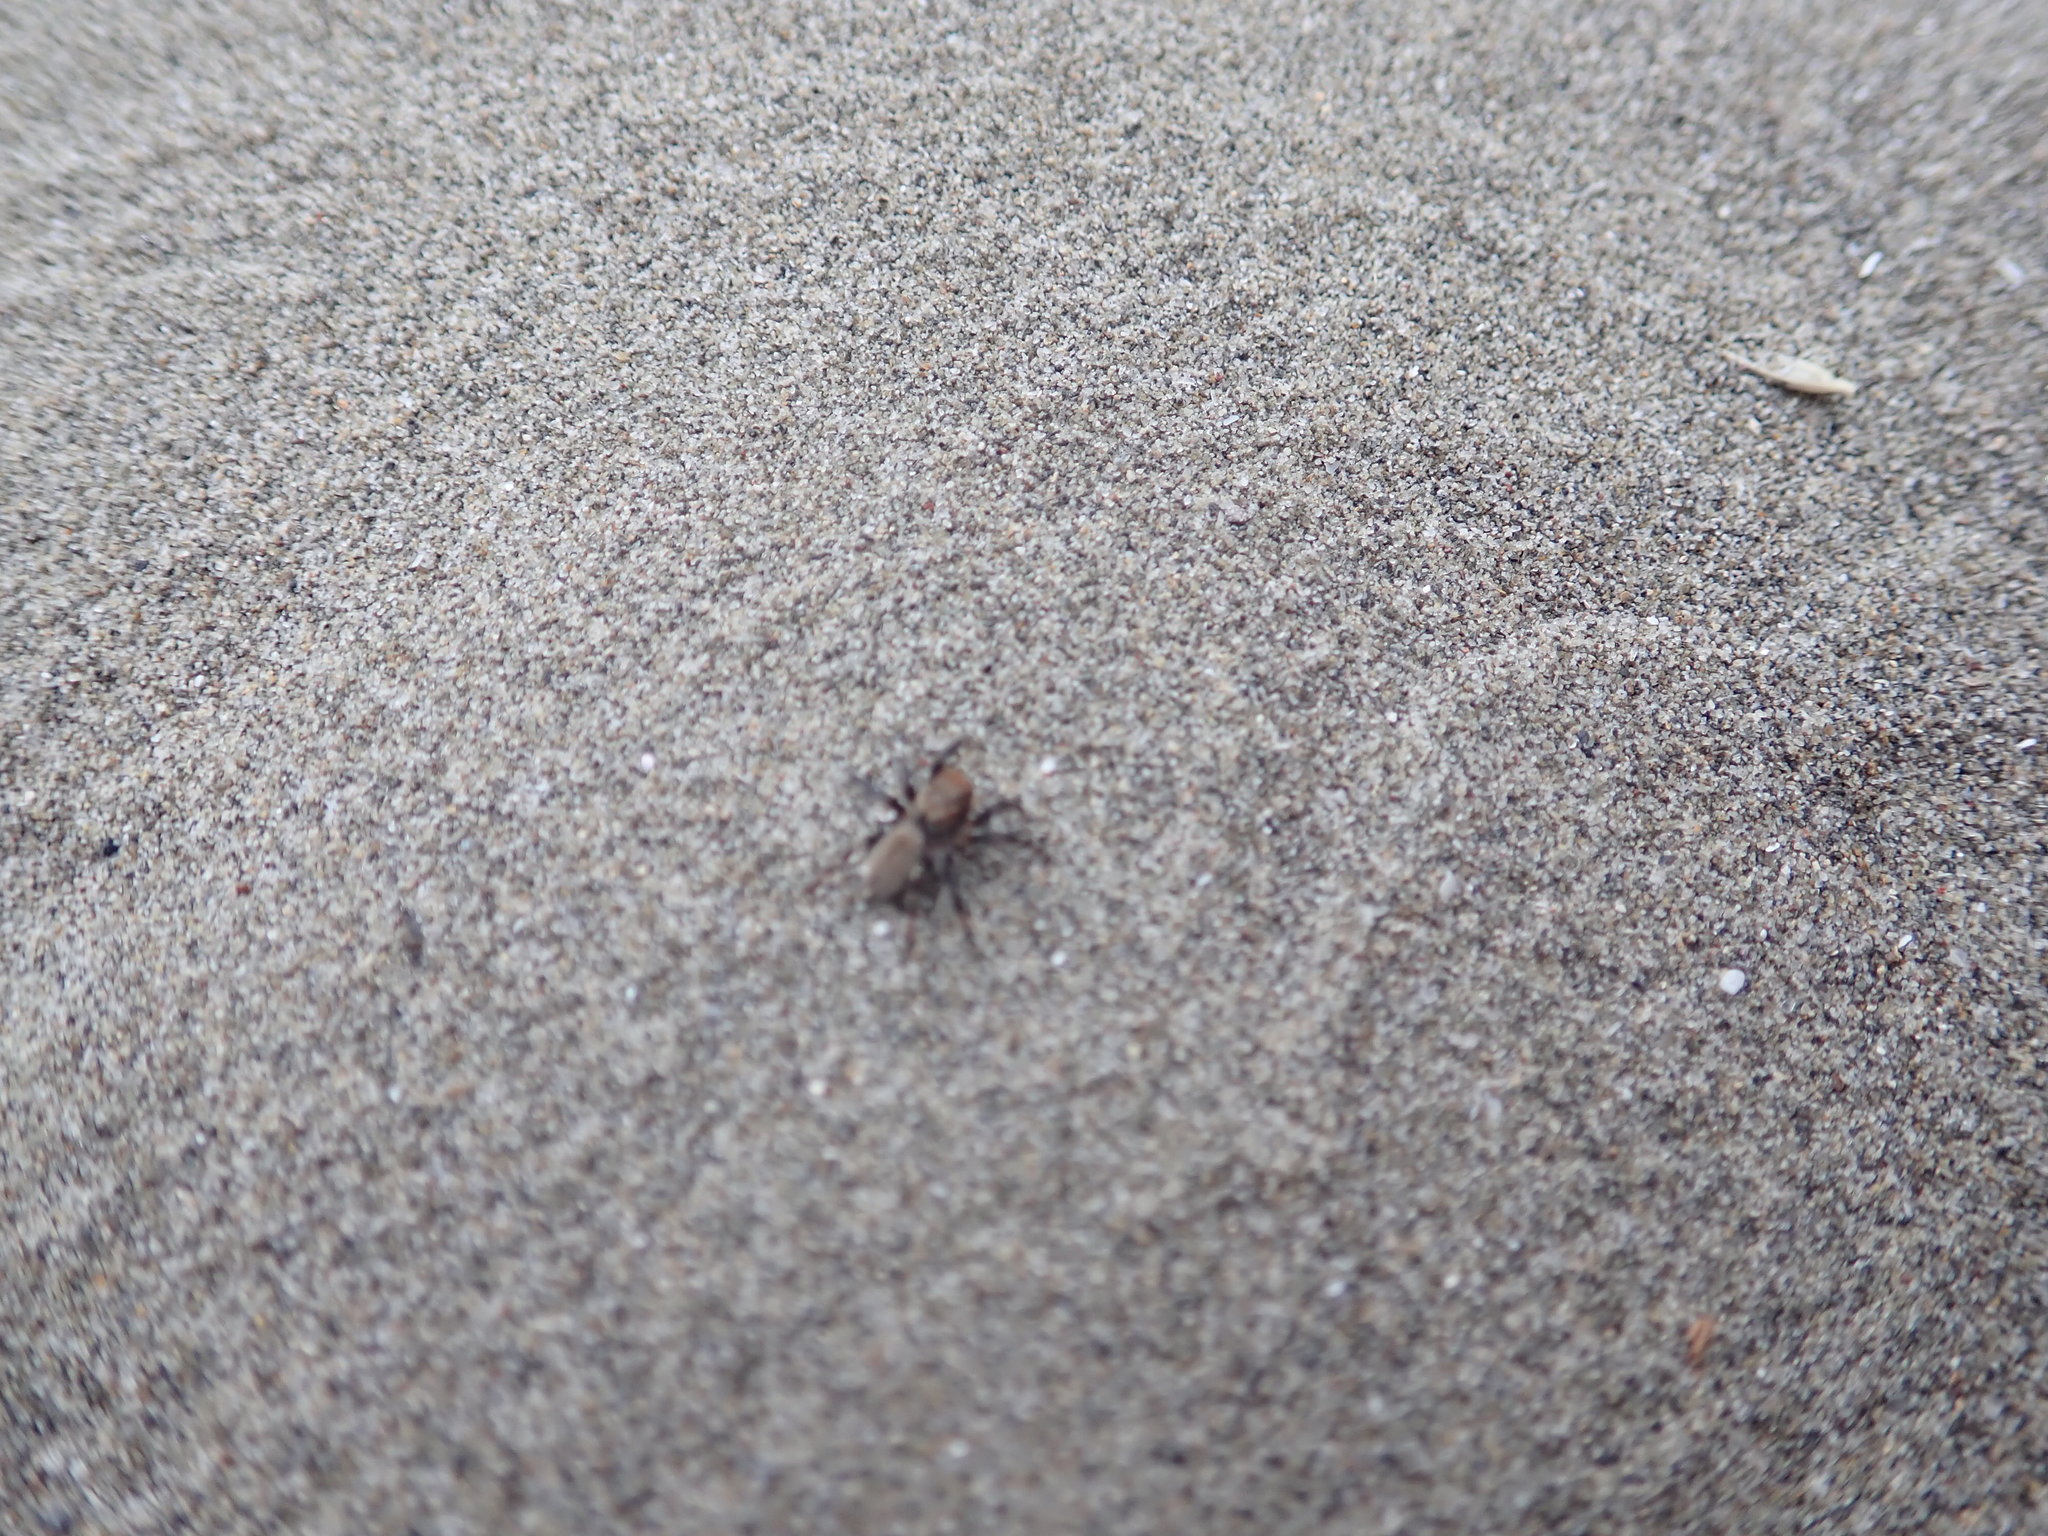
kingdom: Animalia
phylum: Arthropoda
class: Arachnida
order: Araneae
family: Salticidae
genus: Maratus
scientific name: Maratus griseus
